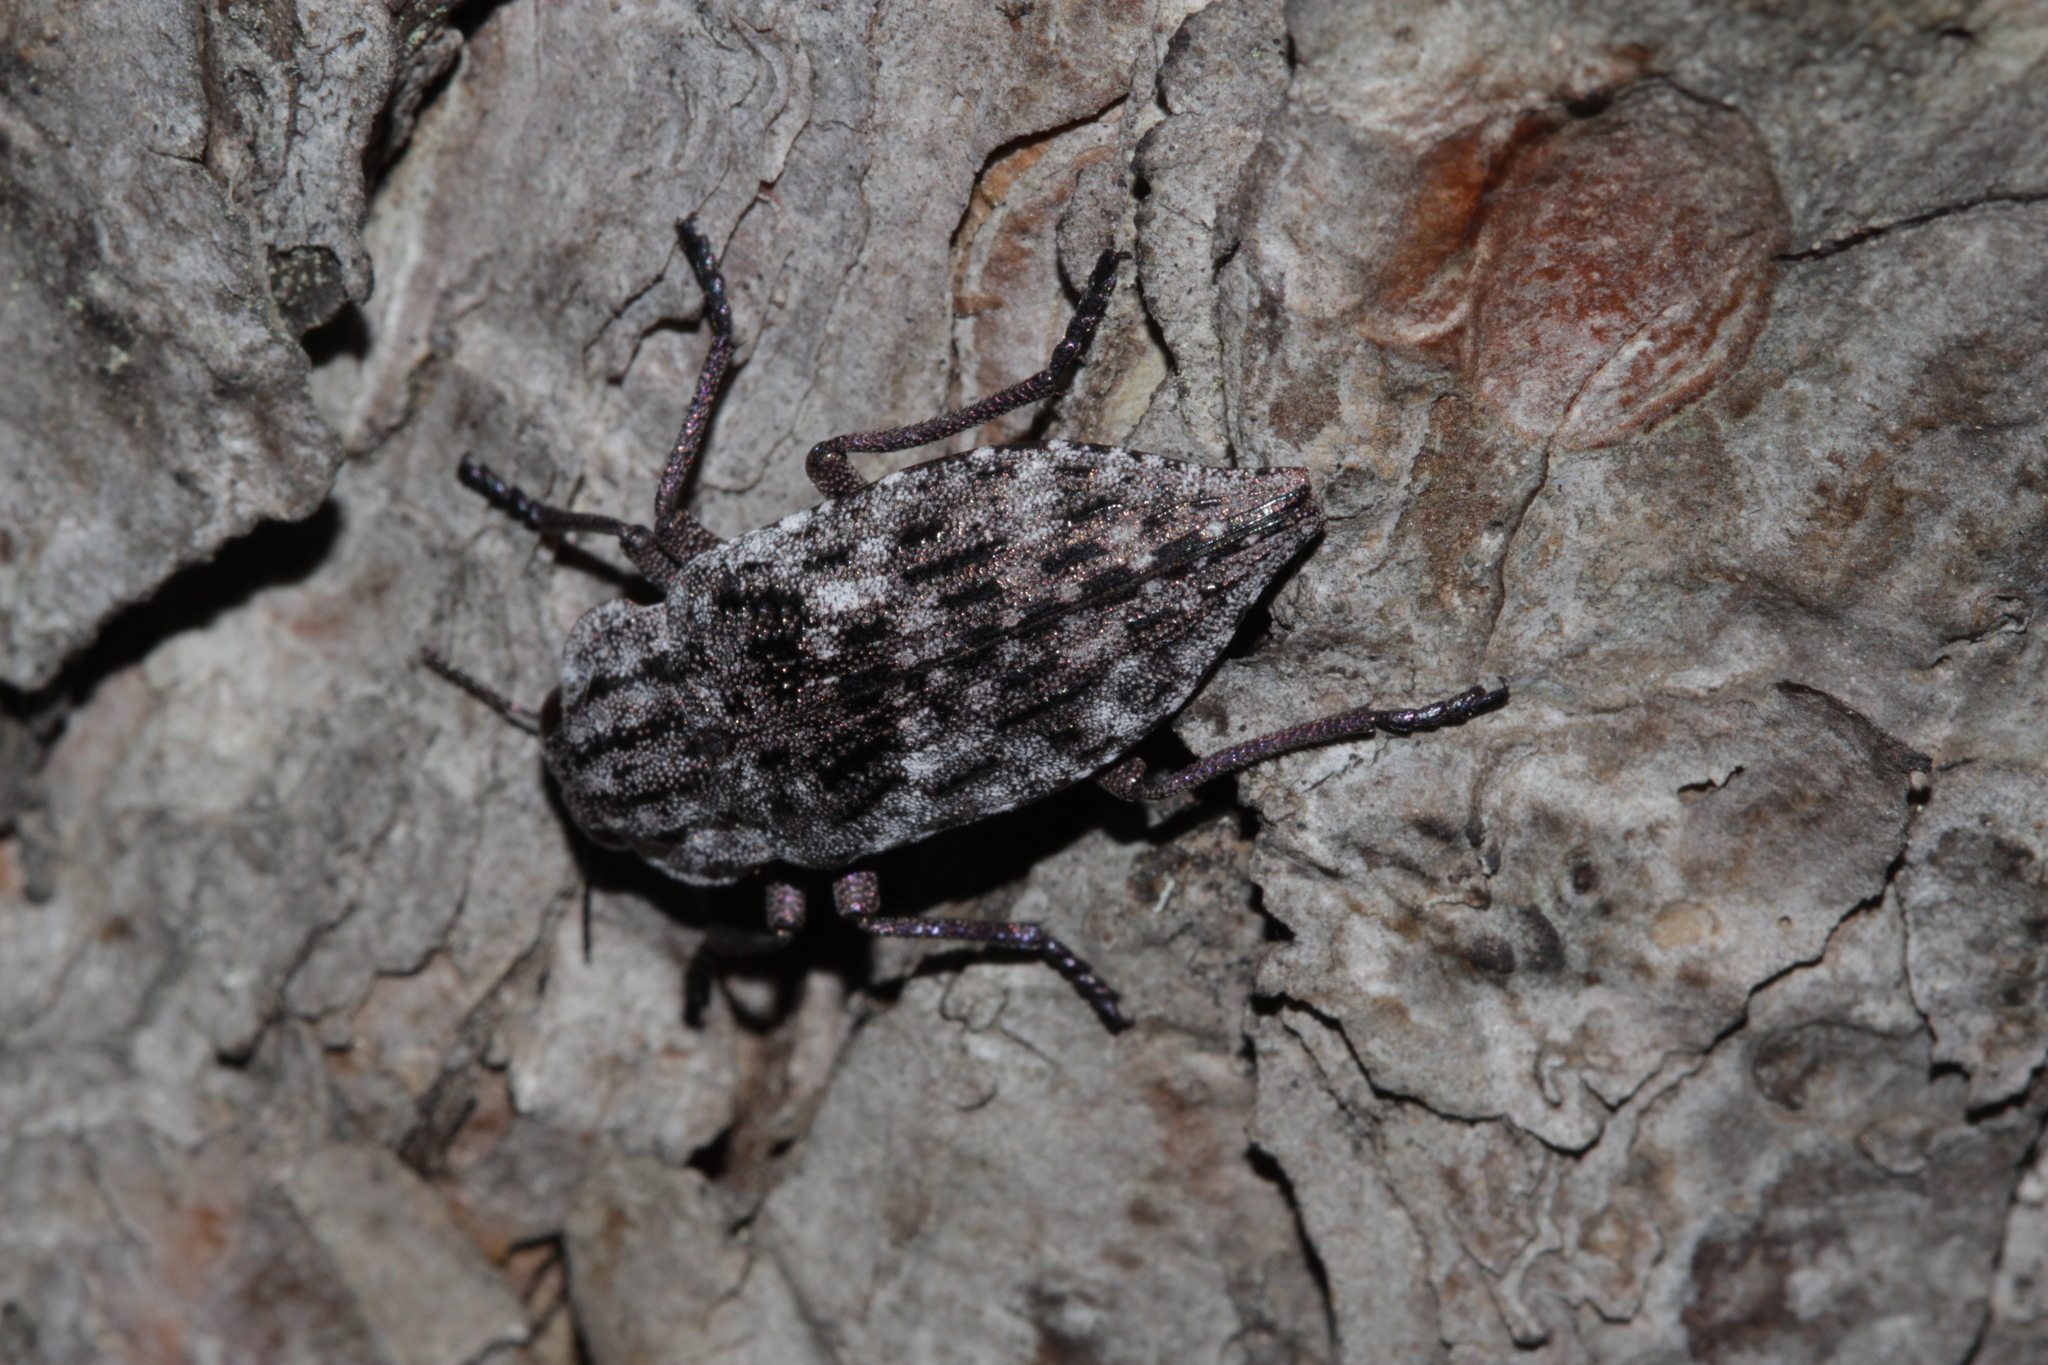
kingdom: Animalia
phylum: Arthropoda
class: Insecta
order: Coleoptera
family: Buprestidae
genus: Dicerca
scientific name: Dicerca moesta
